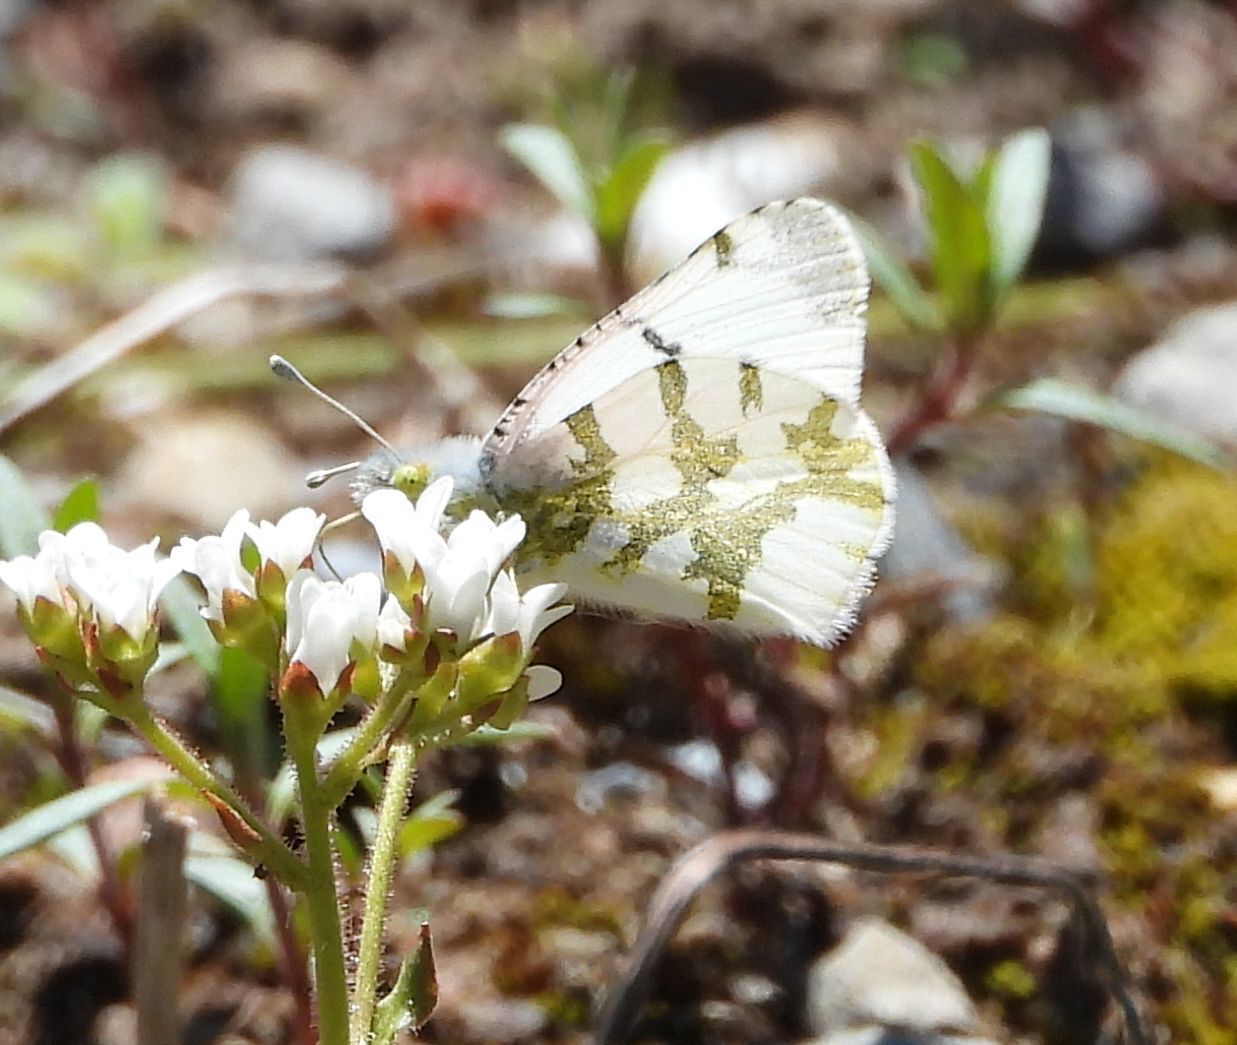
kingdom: Animalia
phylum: Arthropoda
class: Insecta
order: Lepidoptera
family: Pieridae
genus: Euchloe
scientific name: Euchloe olympia
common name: Olympia
